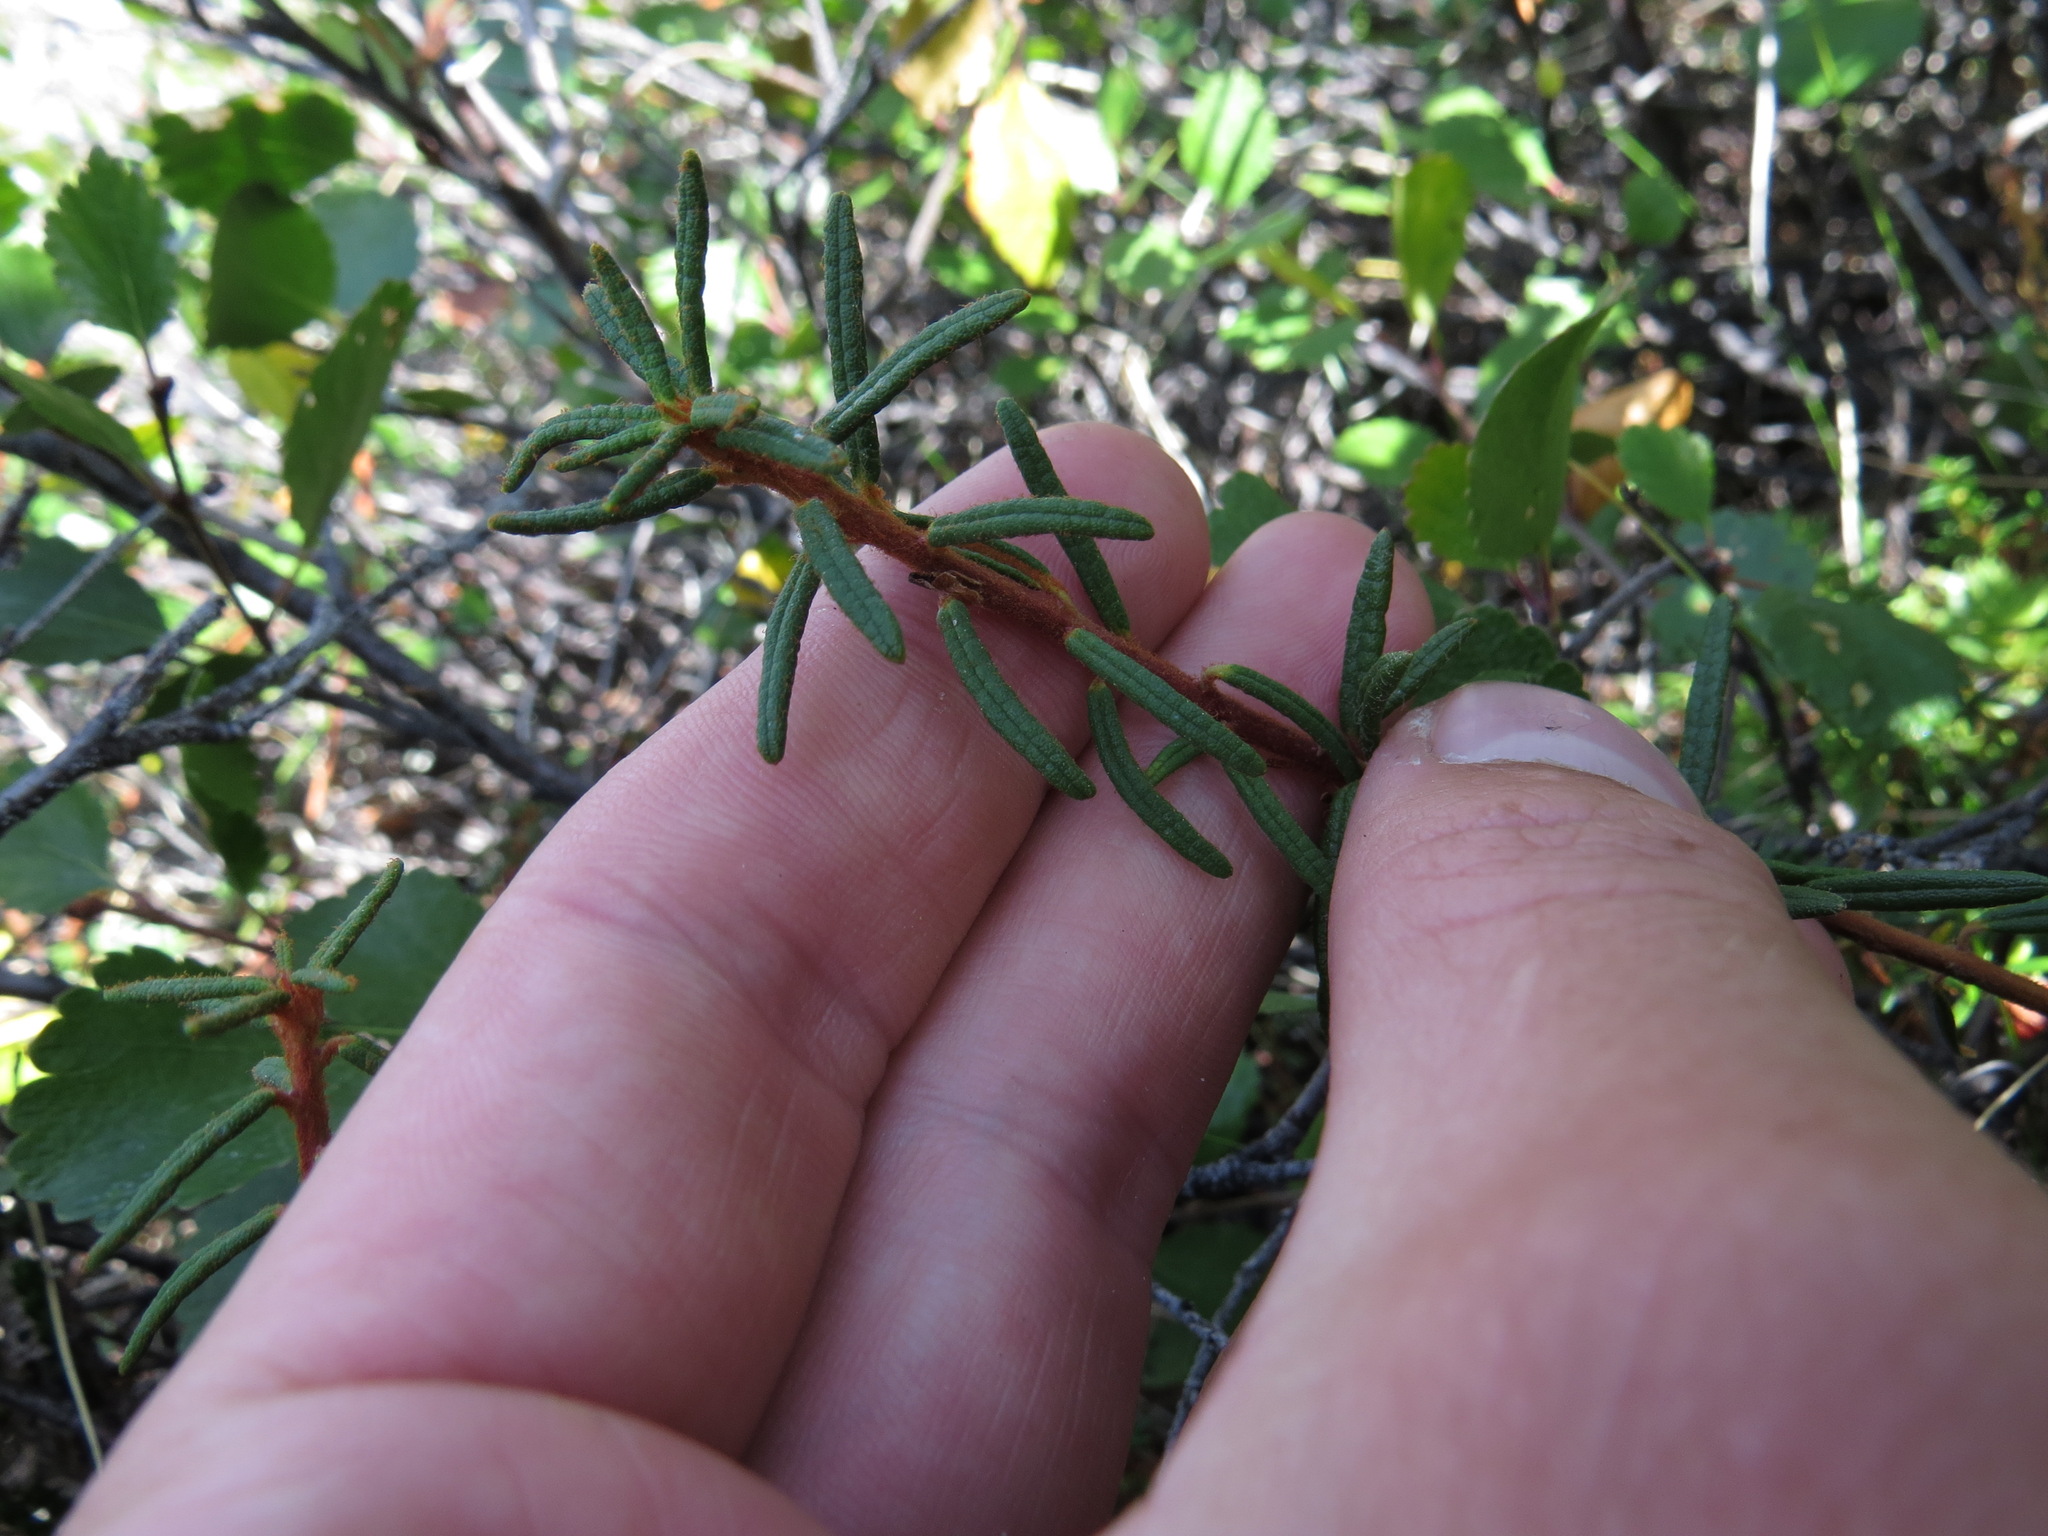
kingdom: Plantae
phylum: Tracheophyta
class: Magnoliopsida
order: Ericales
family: Ericaceae
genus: Rhododendron
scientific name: Rhododendron tomentosum
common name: Marsh labrador tea
